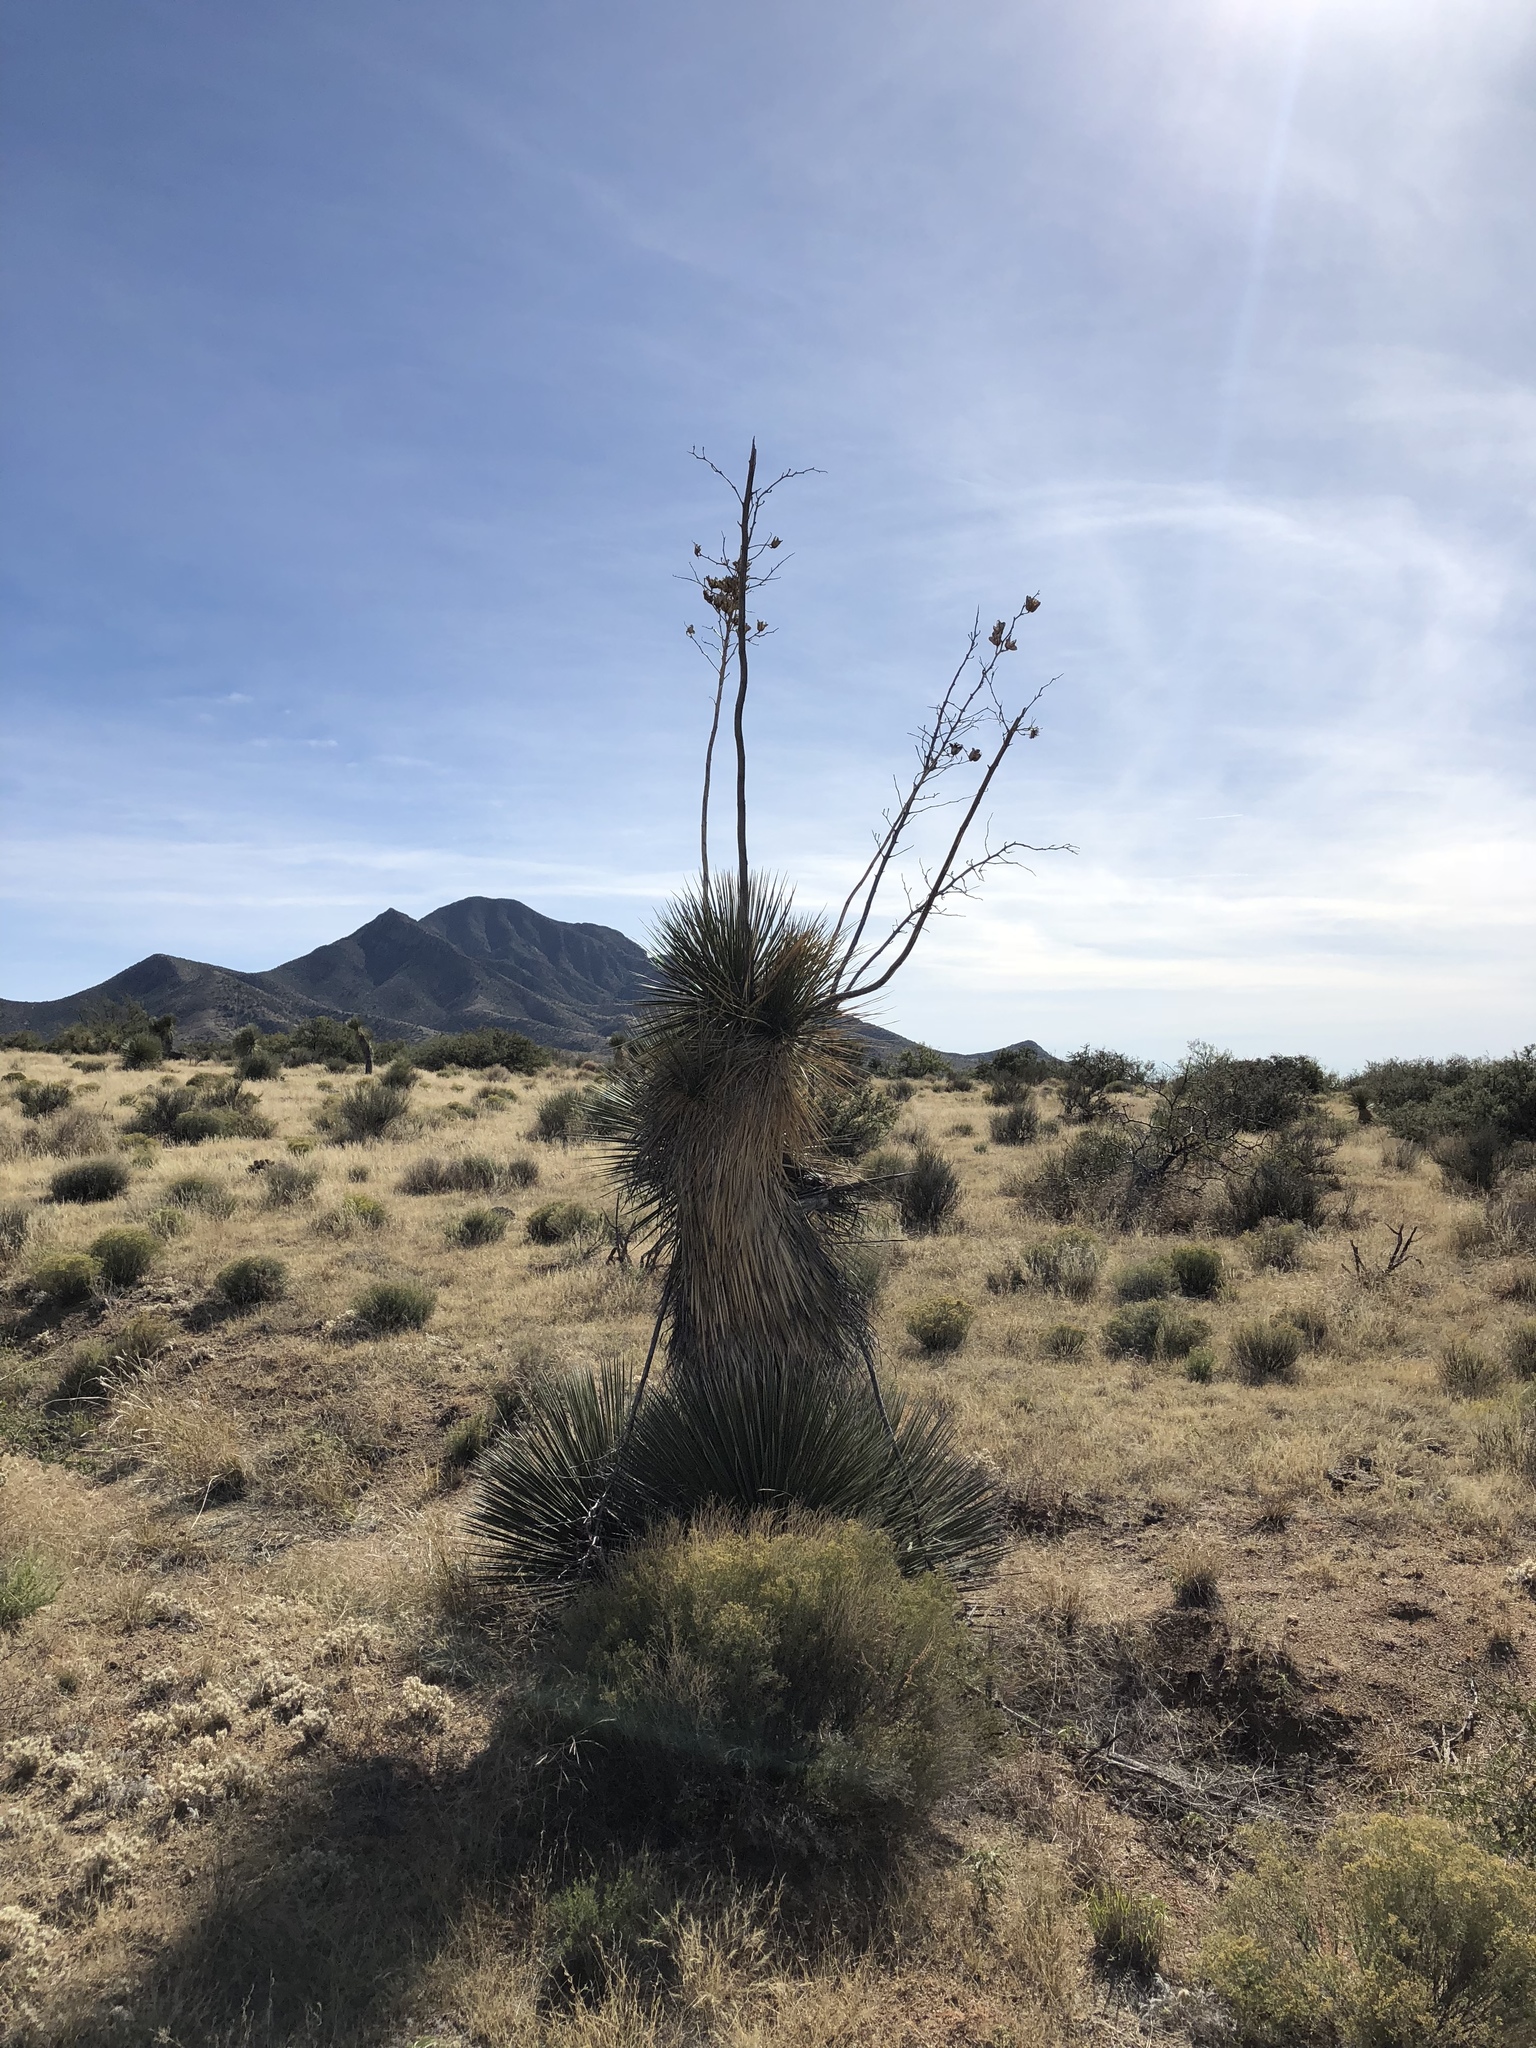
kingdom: Plantae
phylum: Tracheophyta
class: Liliopsida
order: Asparagales
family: Asparagaceae
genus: Yucca
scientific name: Yucca elata
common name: Palmella
